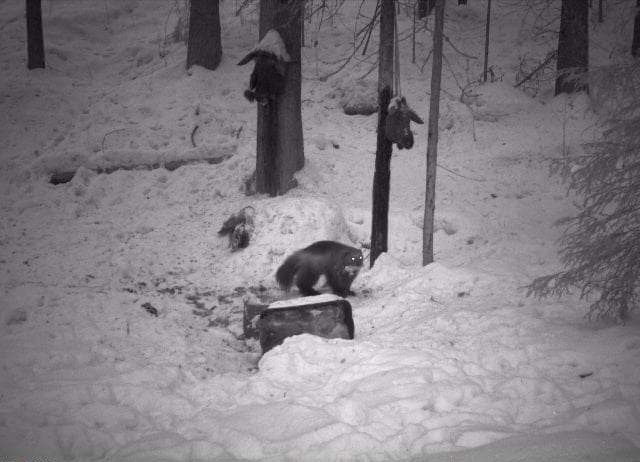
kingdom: Animalia
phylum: Chordata
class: Mammalia
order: Carnivora
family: Mustelidae
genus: Gulo
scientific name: Gulo gulo
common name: Wolverine
